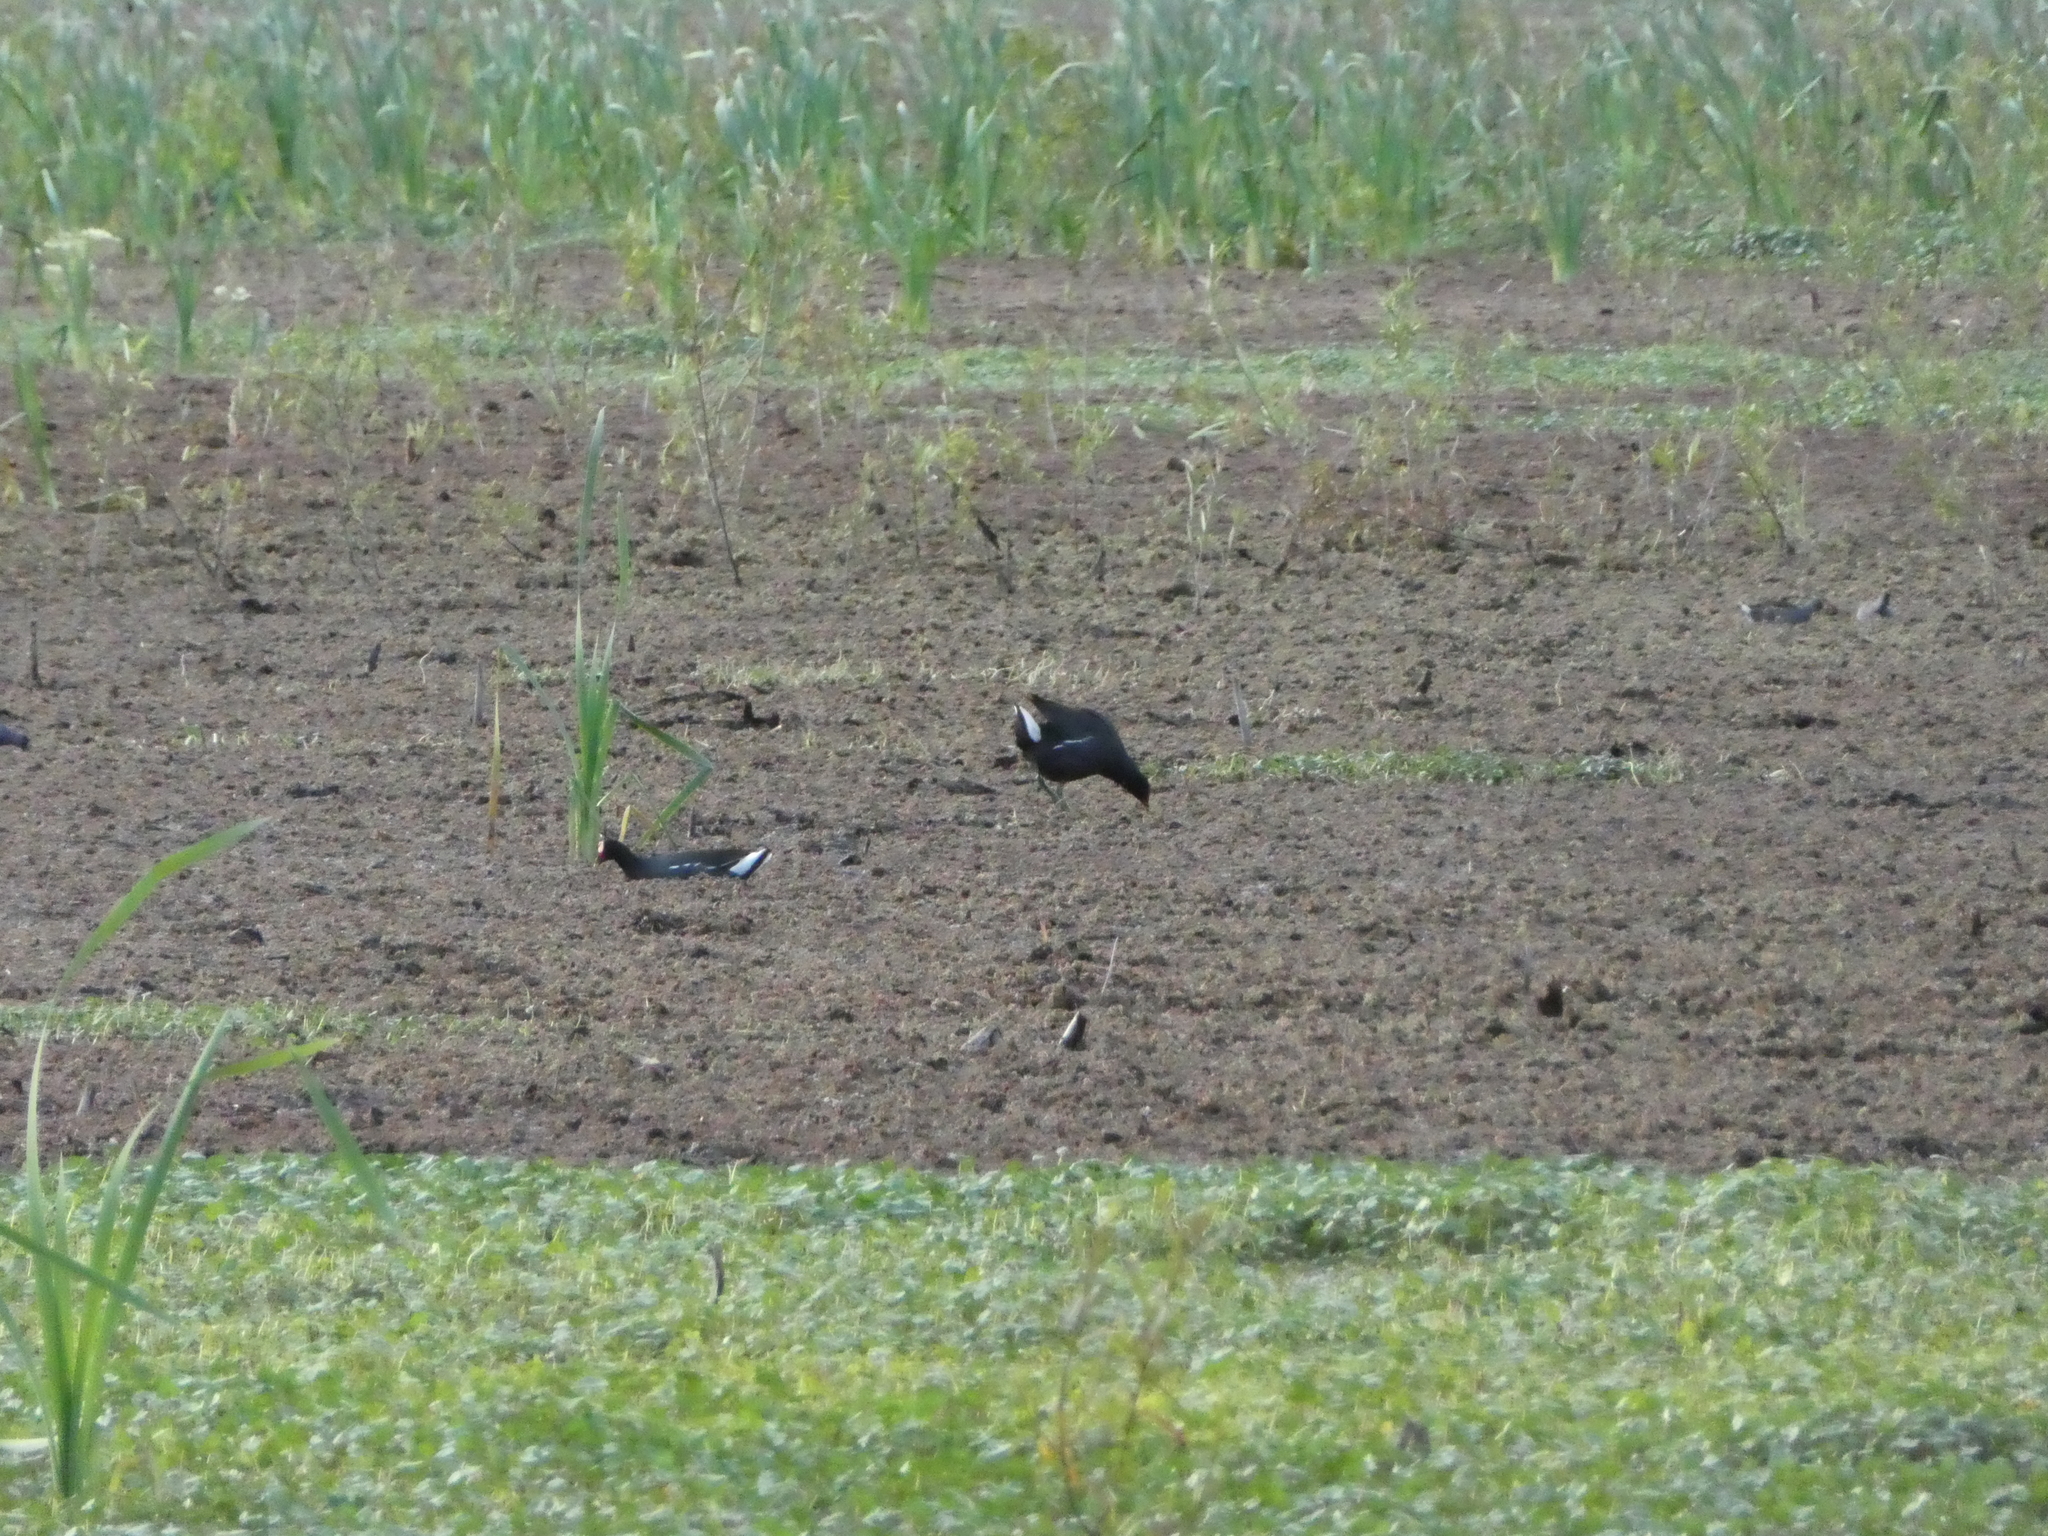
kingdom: Animalia
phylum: Chordata
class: Aves
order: Gruiformes
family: Rallidae
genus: Gallinula
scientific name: Gallinula chloropus
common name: Common moorhen
